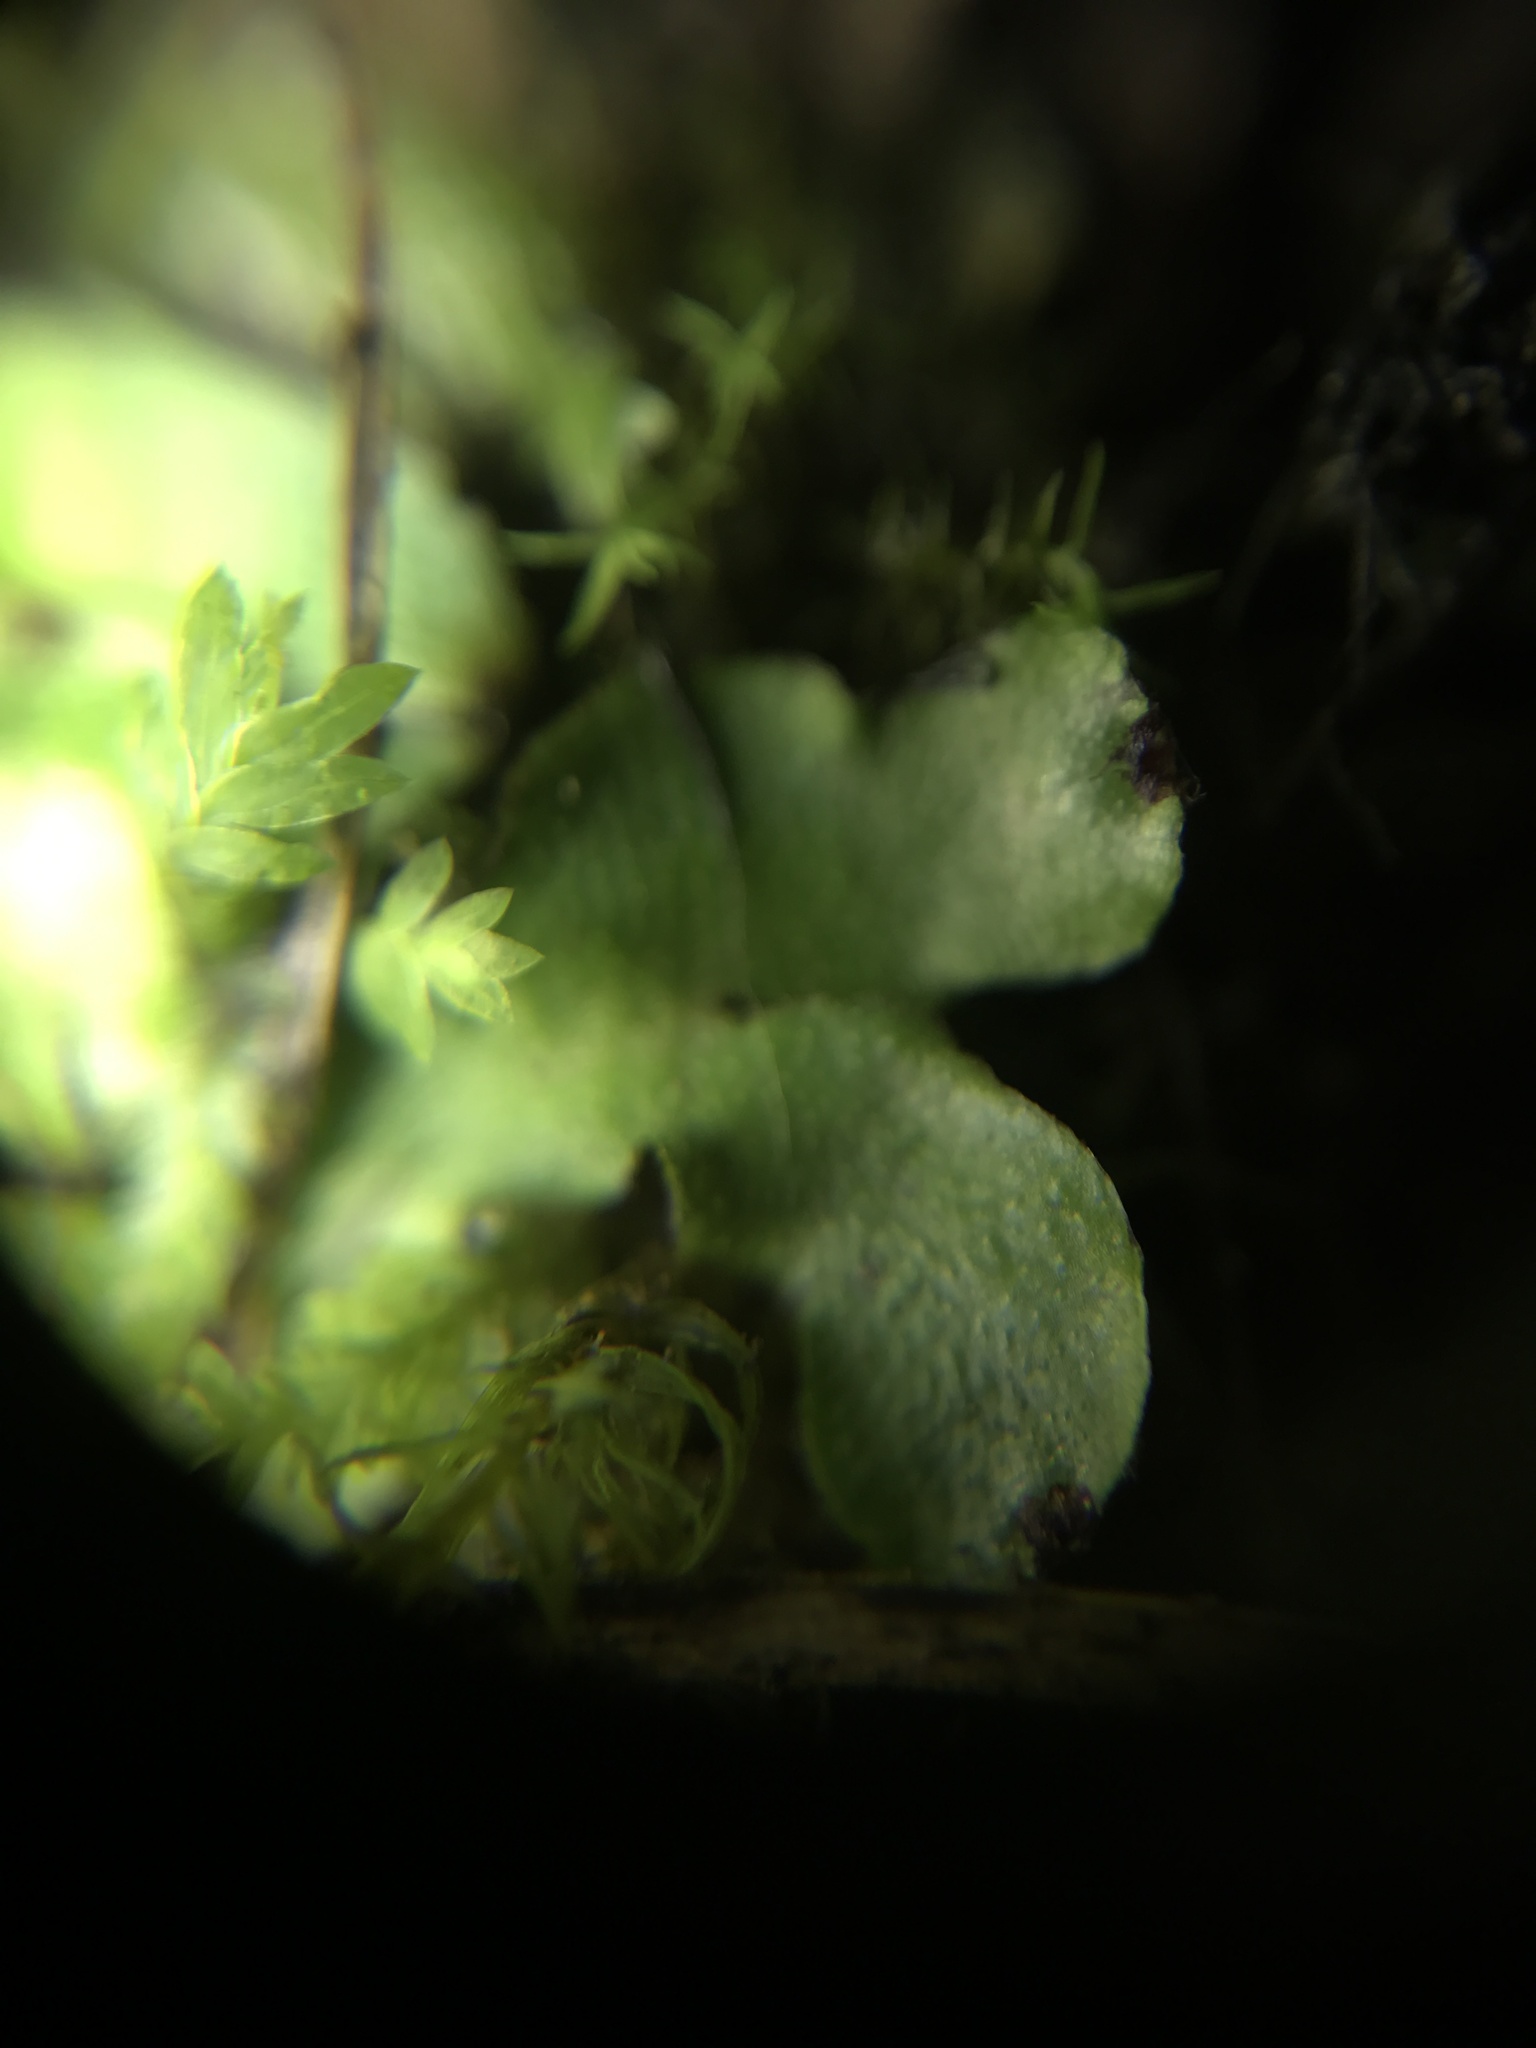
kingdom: Plantae
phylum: Marchantiophyta
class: Marchantiopsida
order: Marchantiales
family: Targioniaceae
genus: Targionia
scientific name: Targionia hypophylla
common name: Orobus-seed liverwort
